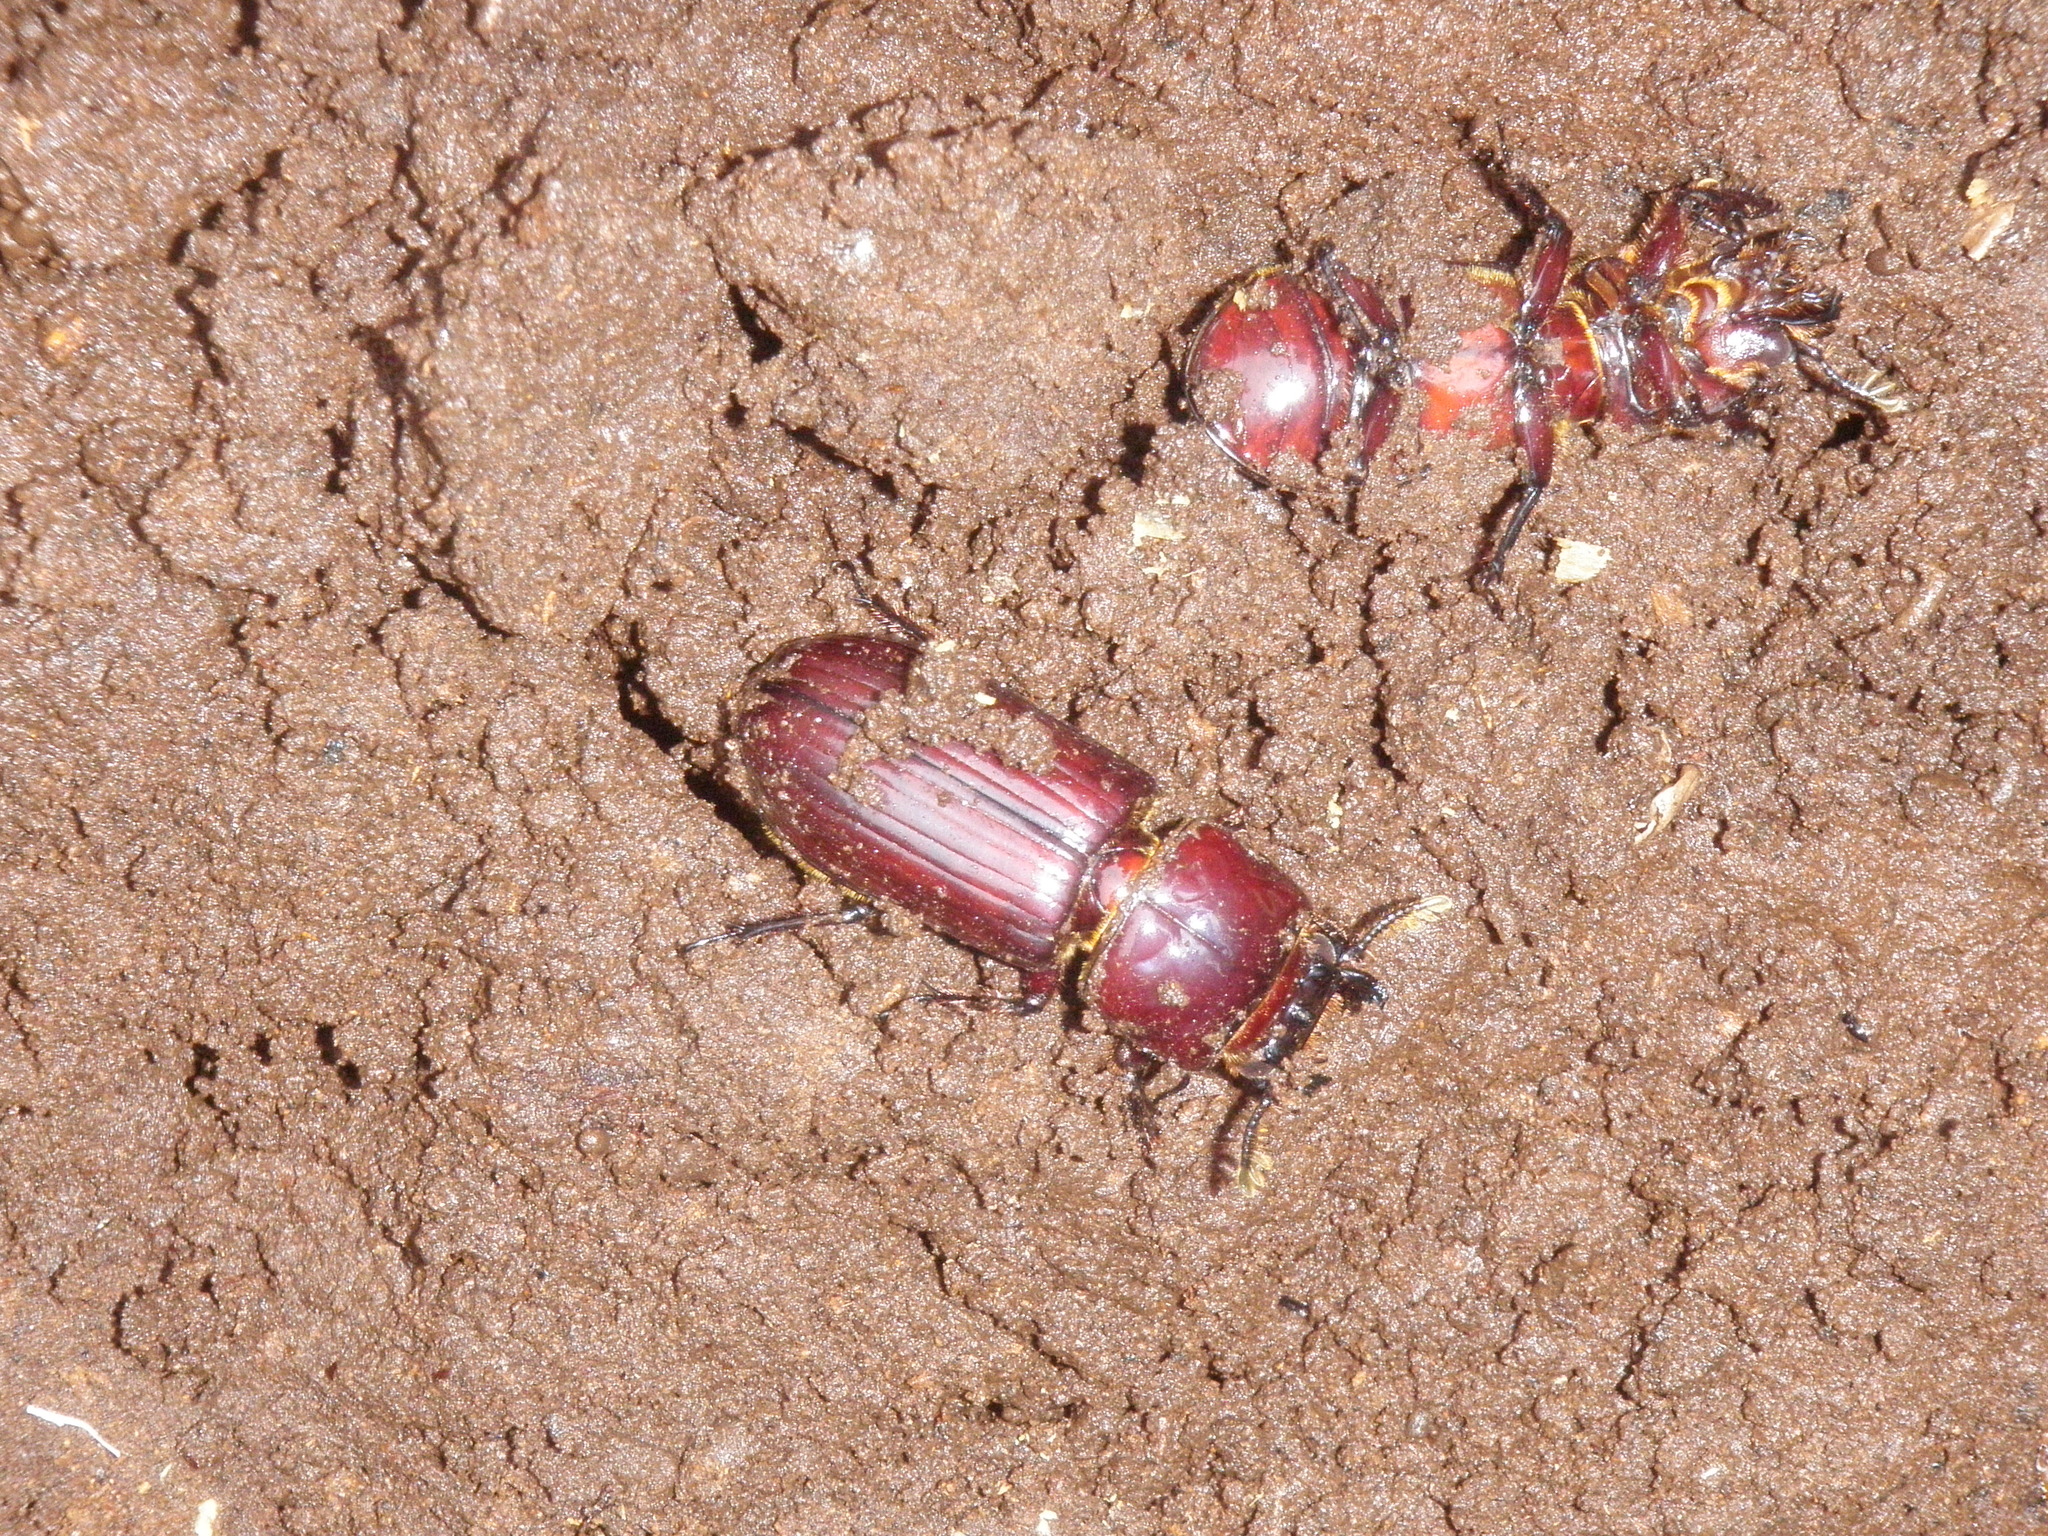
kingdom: Animalia
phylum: Arthropoda
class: Insecta
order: Coleoptera
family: Passalidae
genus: Aulacocyclus
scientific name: Aulacocyclus fracticornis
